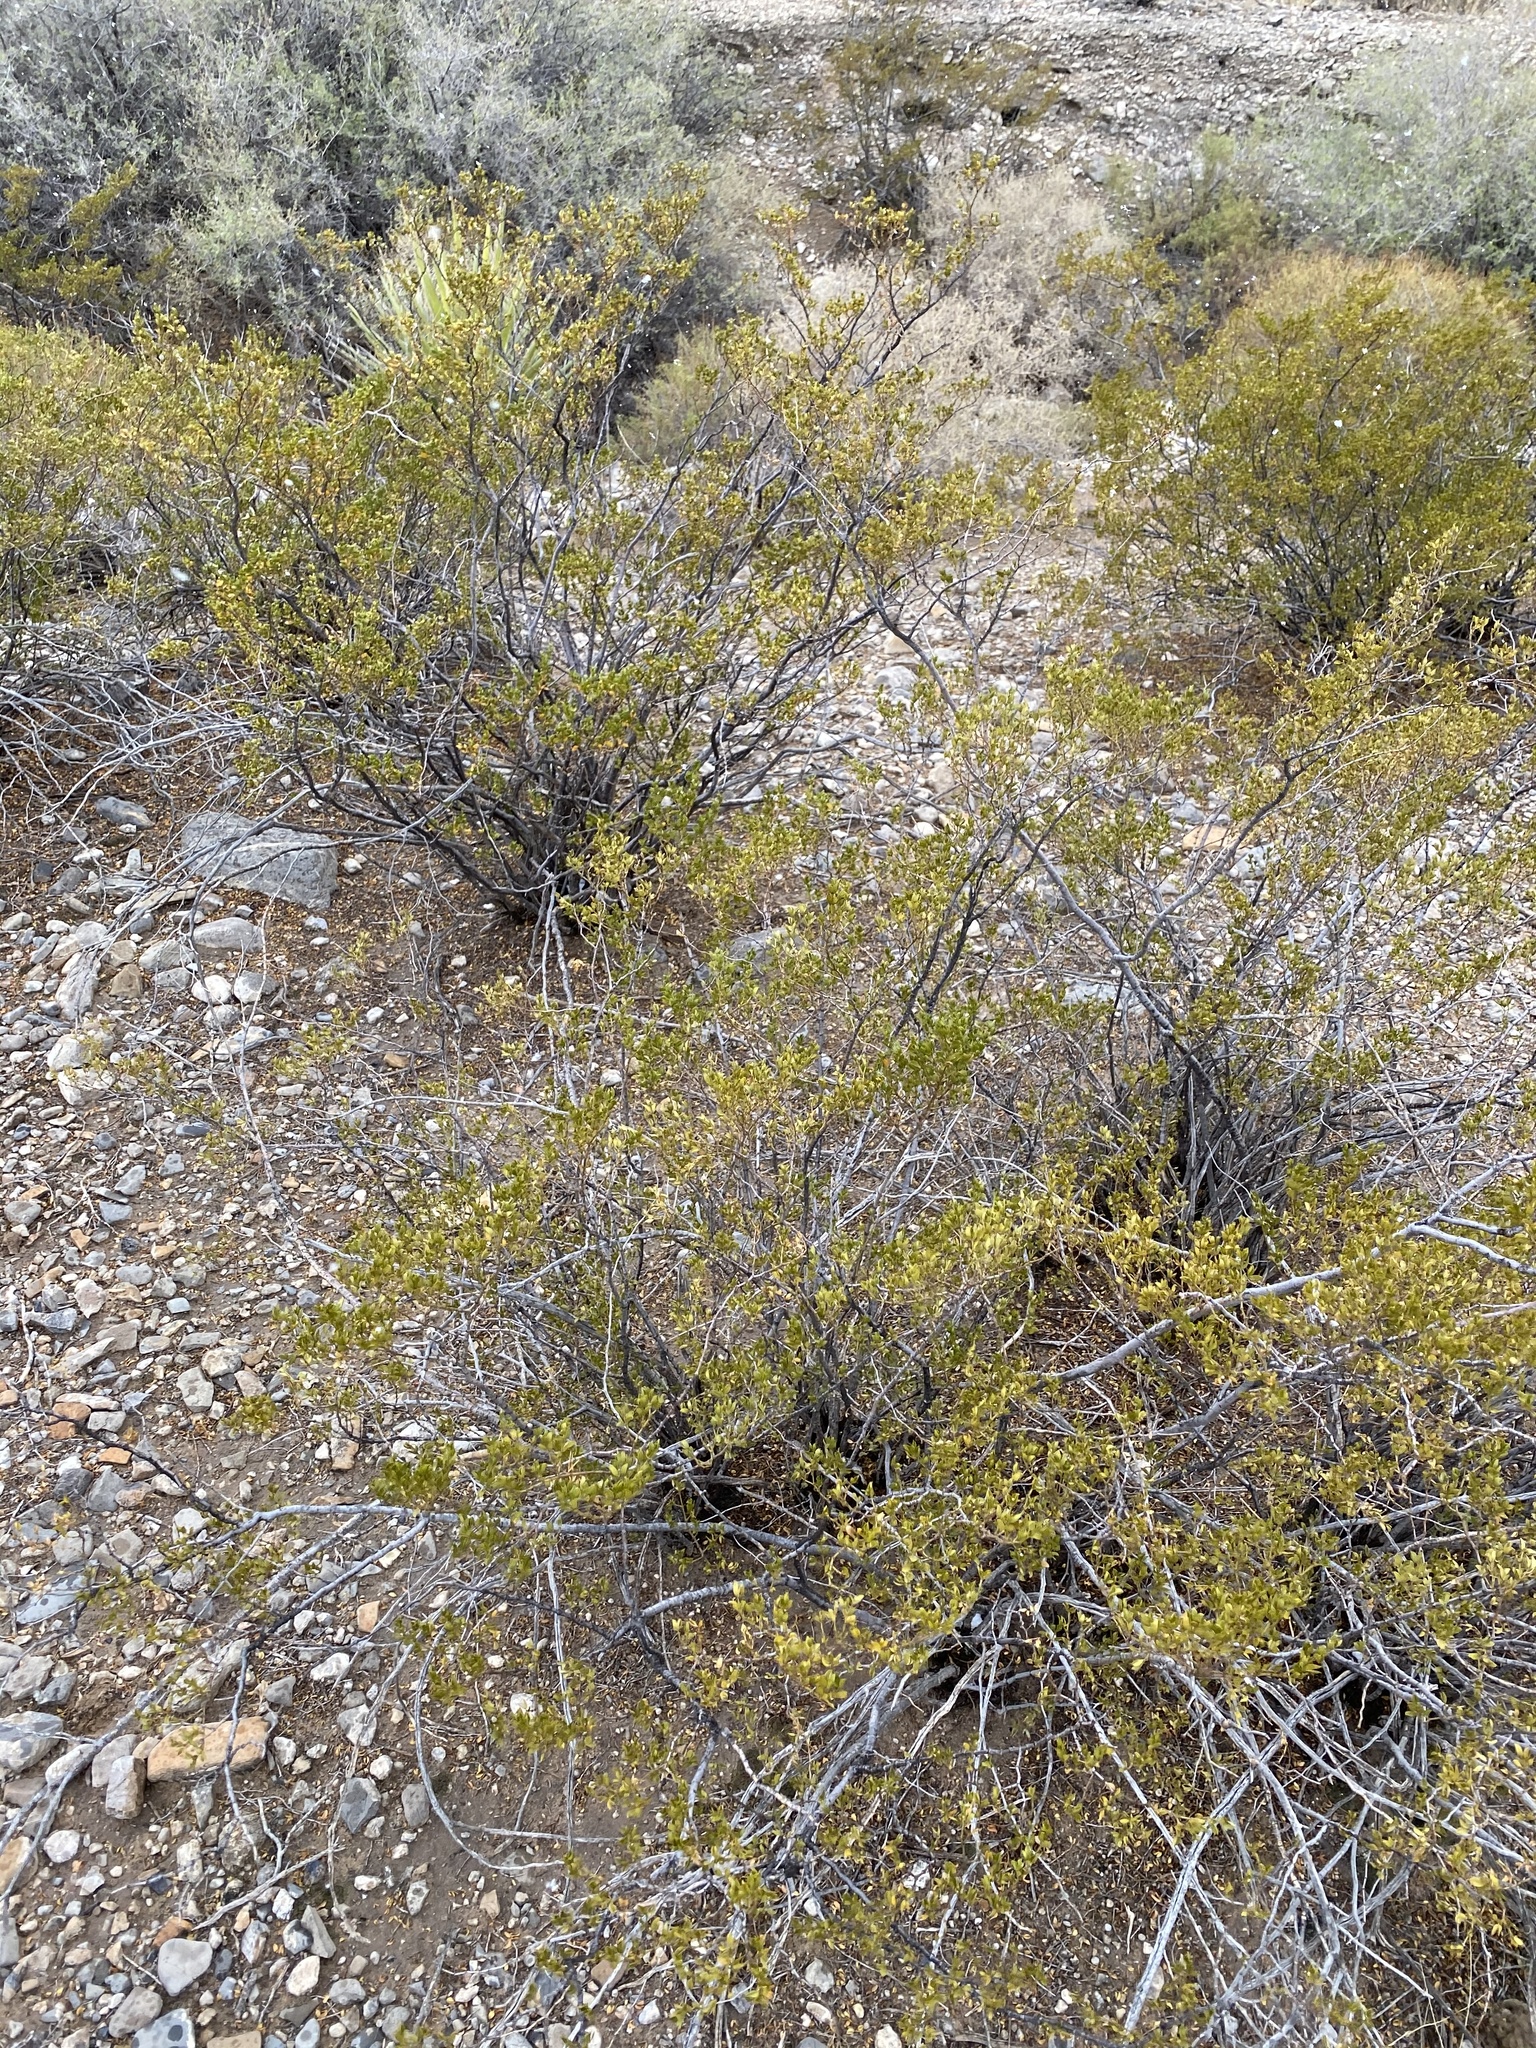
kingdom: Plantae
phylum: Tracheophyta
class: Magnoliopsida
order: Zygophyllales
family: Zygophyllaceae
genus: Larrea
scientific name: Larrea tridentata
